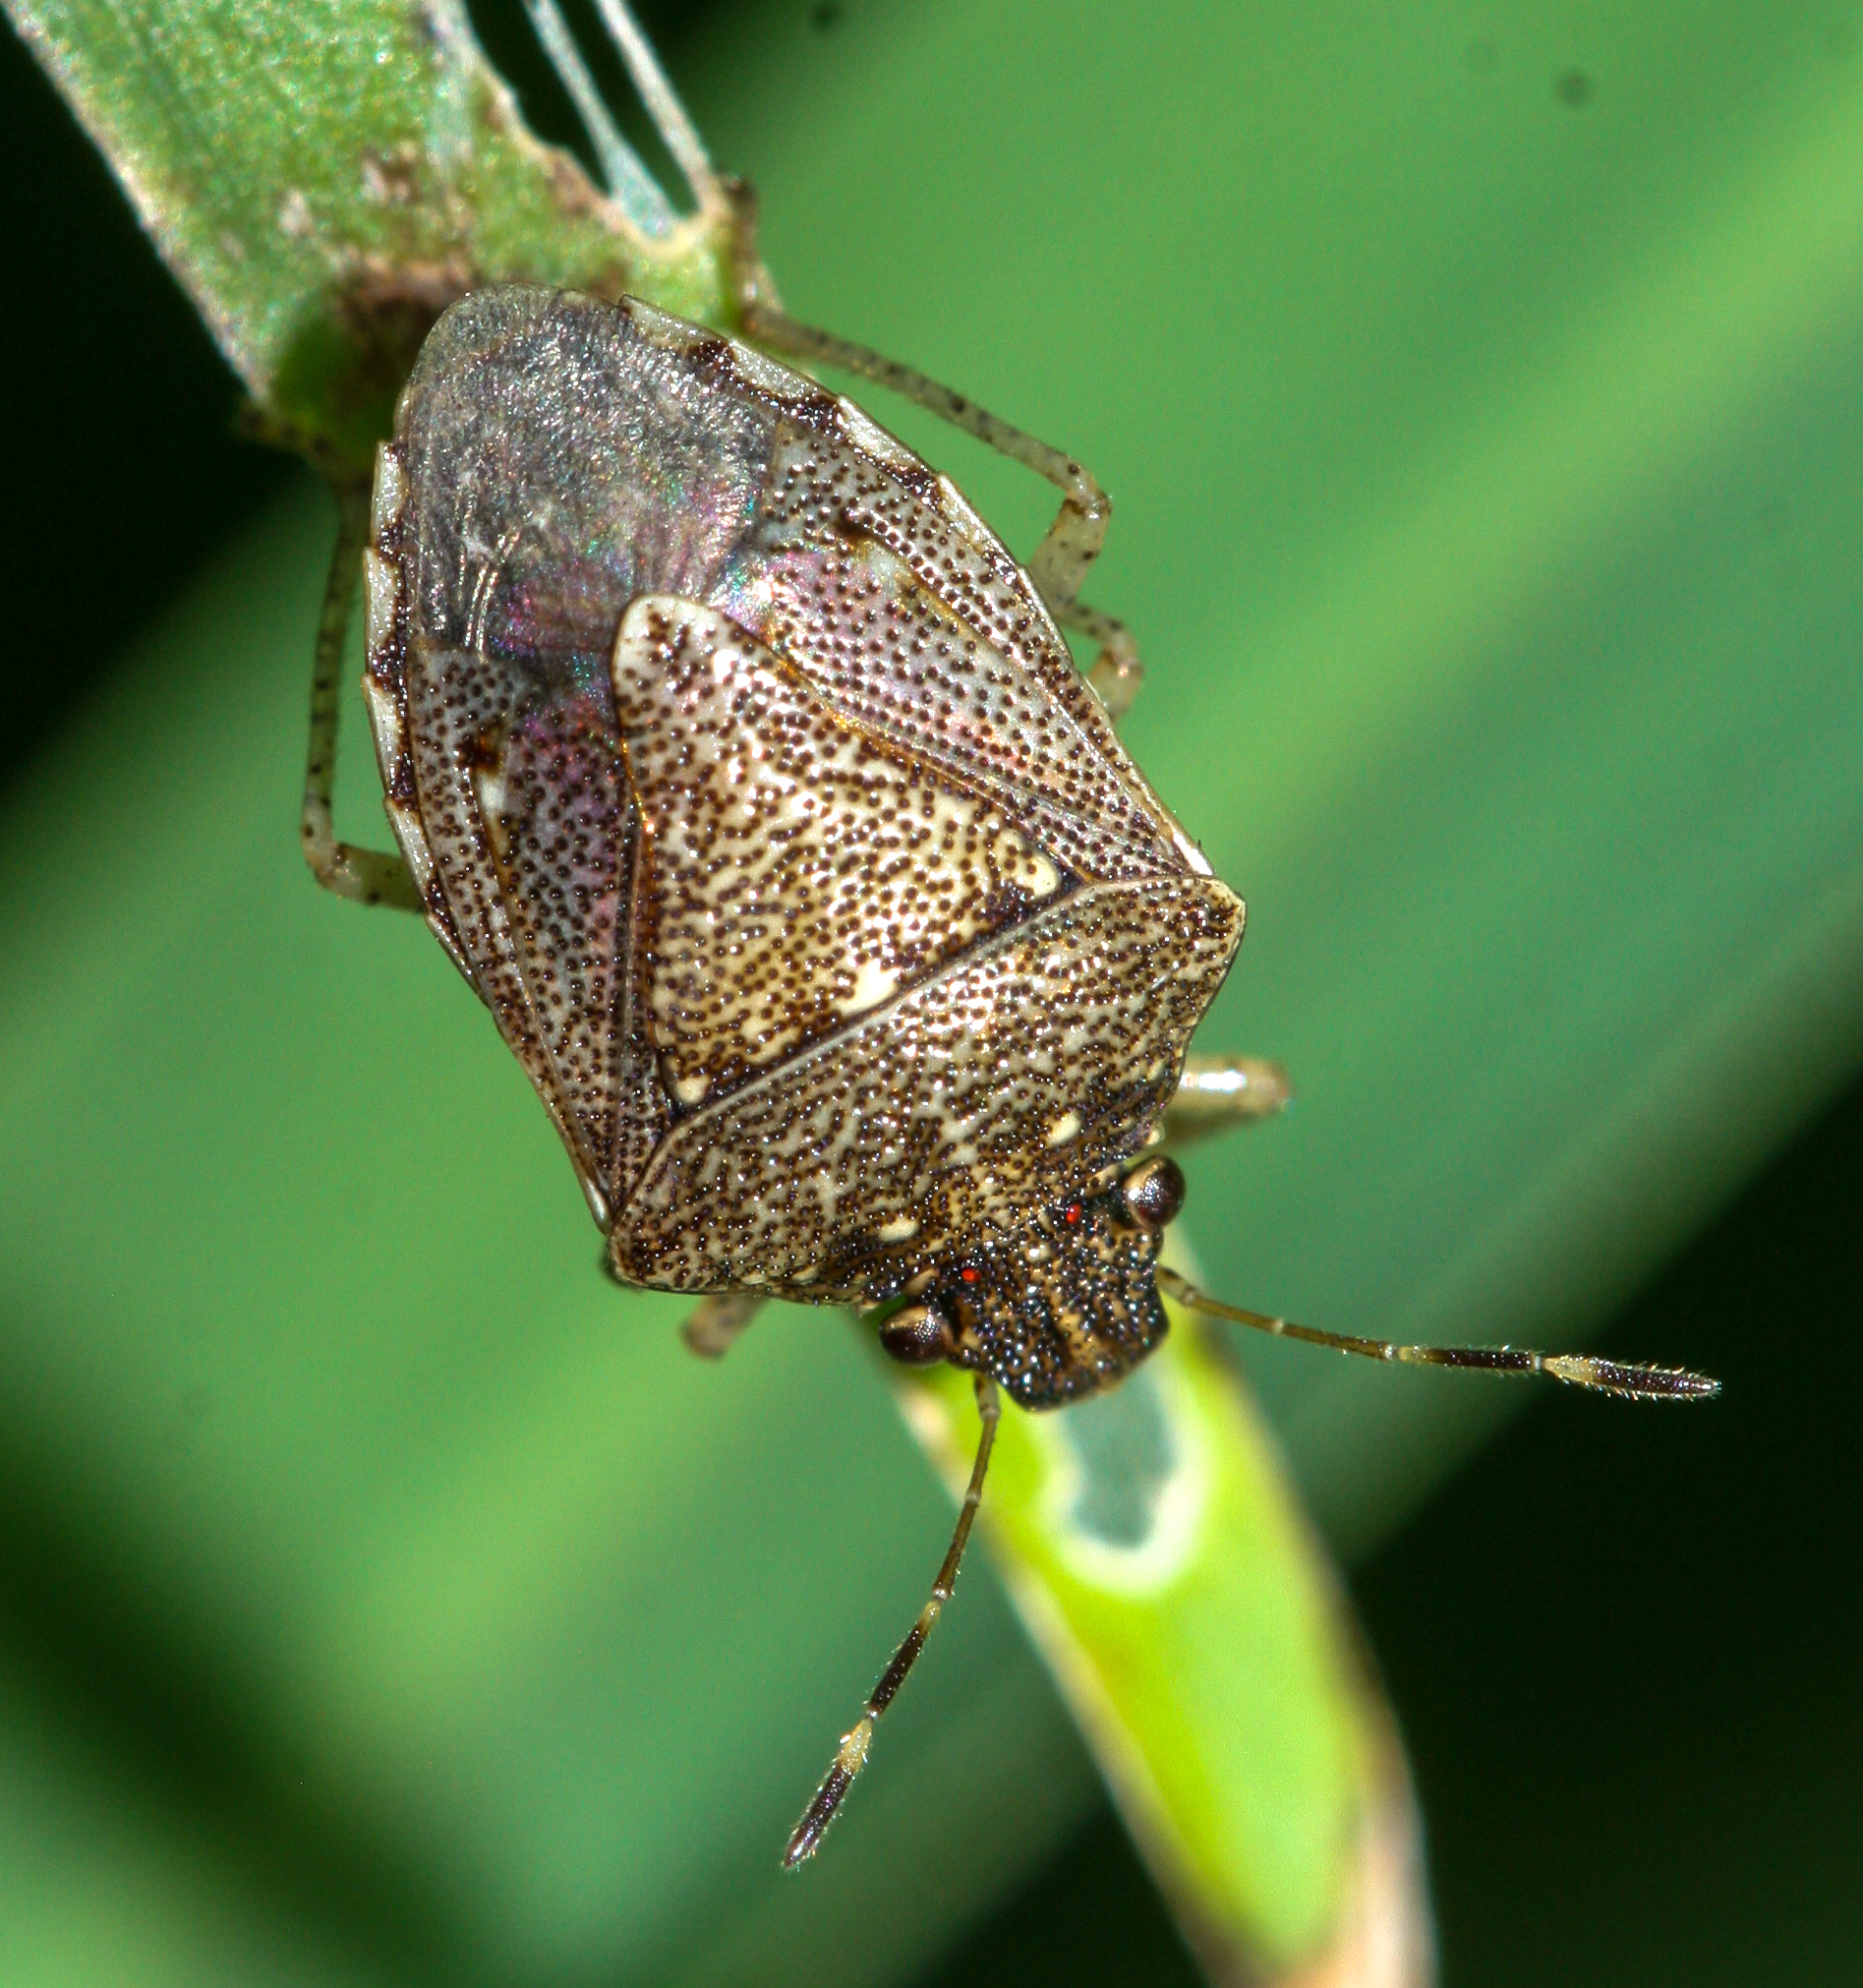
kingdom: Animalia
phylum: Arthropoda
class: Insecta
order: Hemiptera
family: Pentatomidae
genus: Mormidea
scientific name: Mormidea cubrosa
